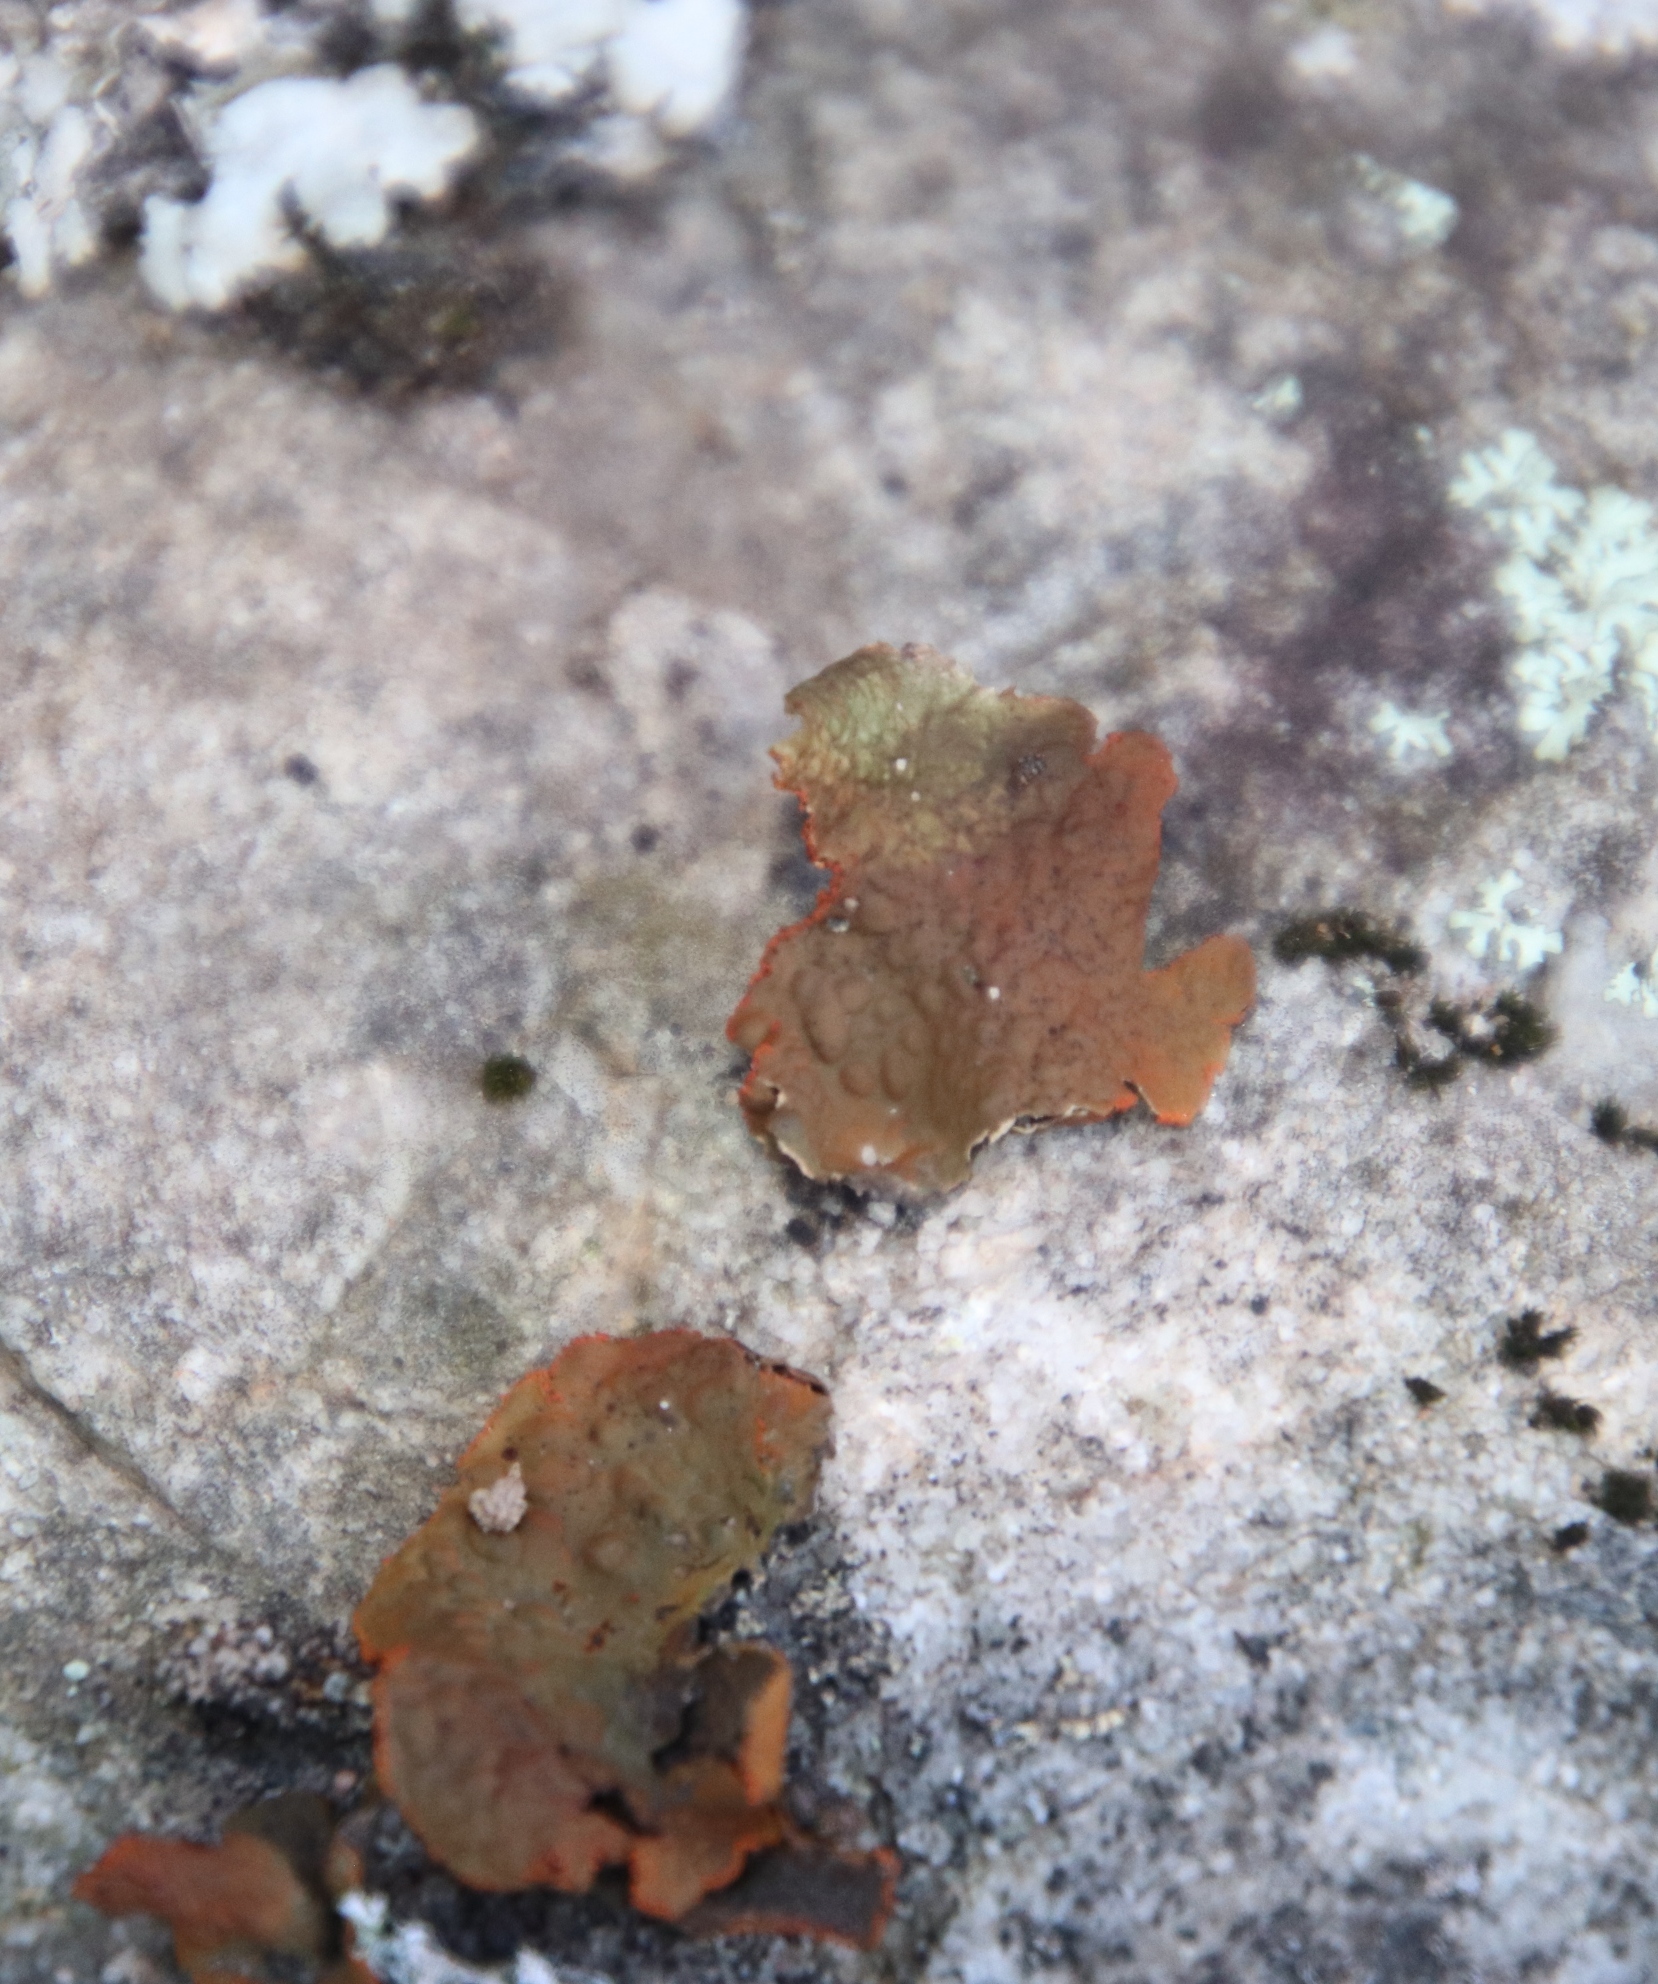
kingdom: Fungi
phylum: Ascomycota
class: Lecanoromycetes
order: Umbilicariales
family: Umbilicariaceae
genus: Lasallia
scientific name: Lasallia rubiginosa
